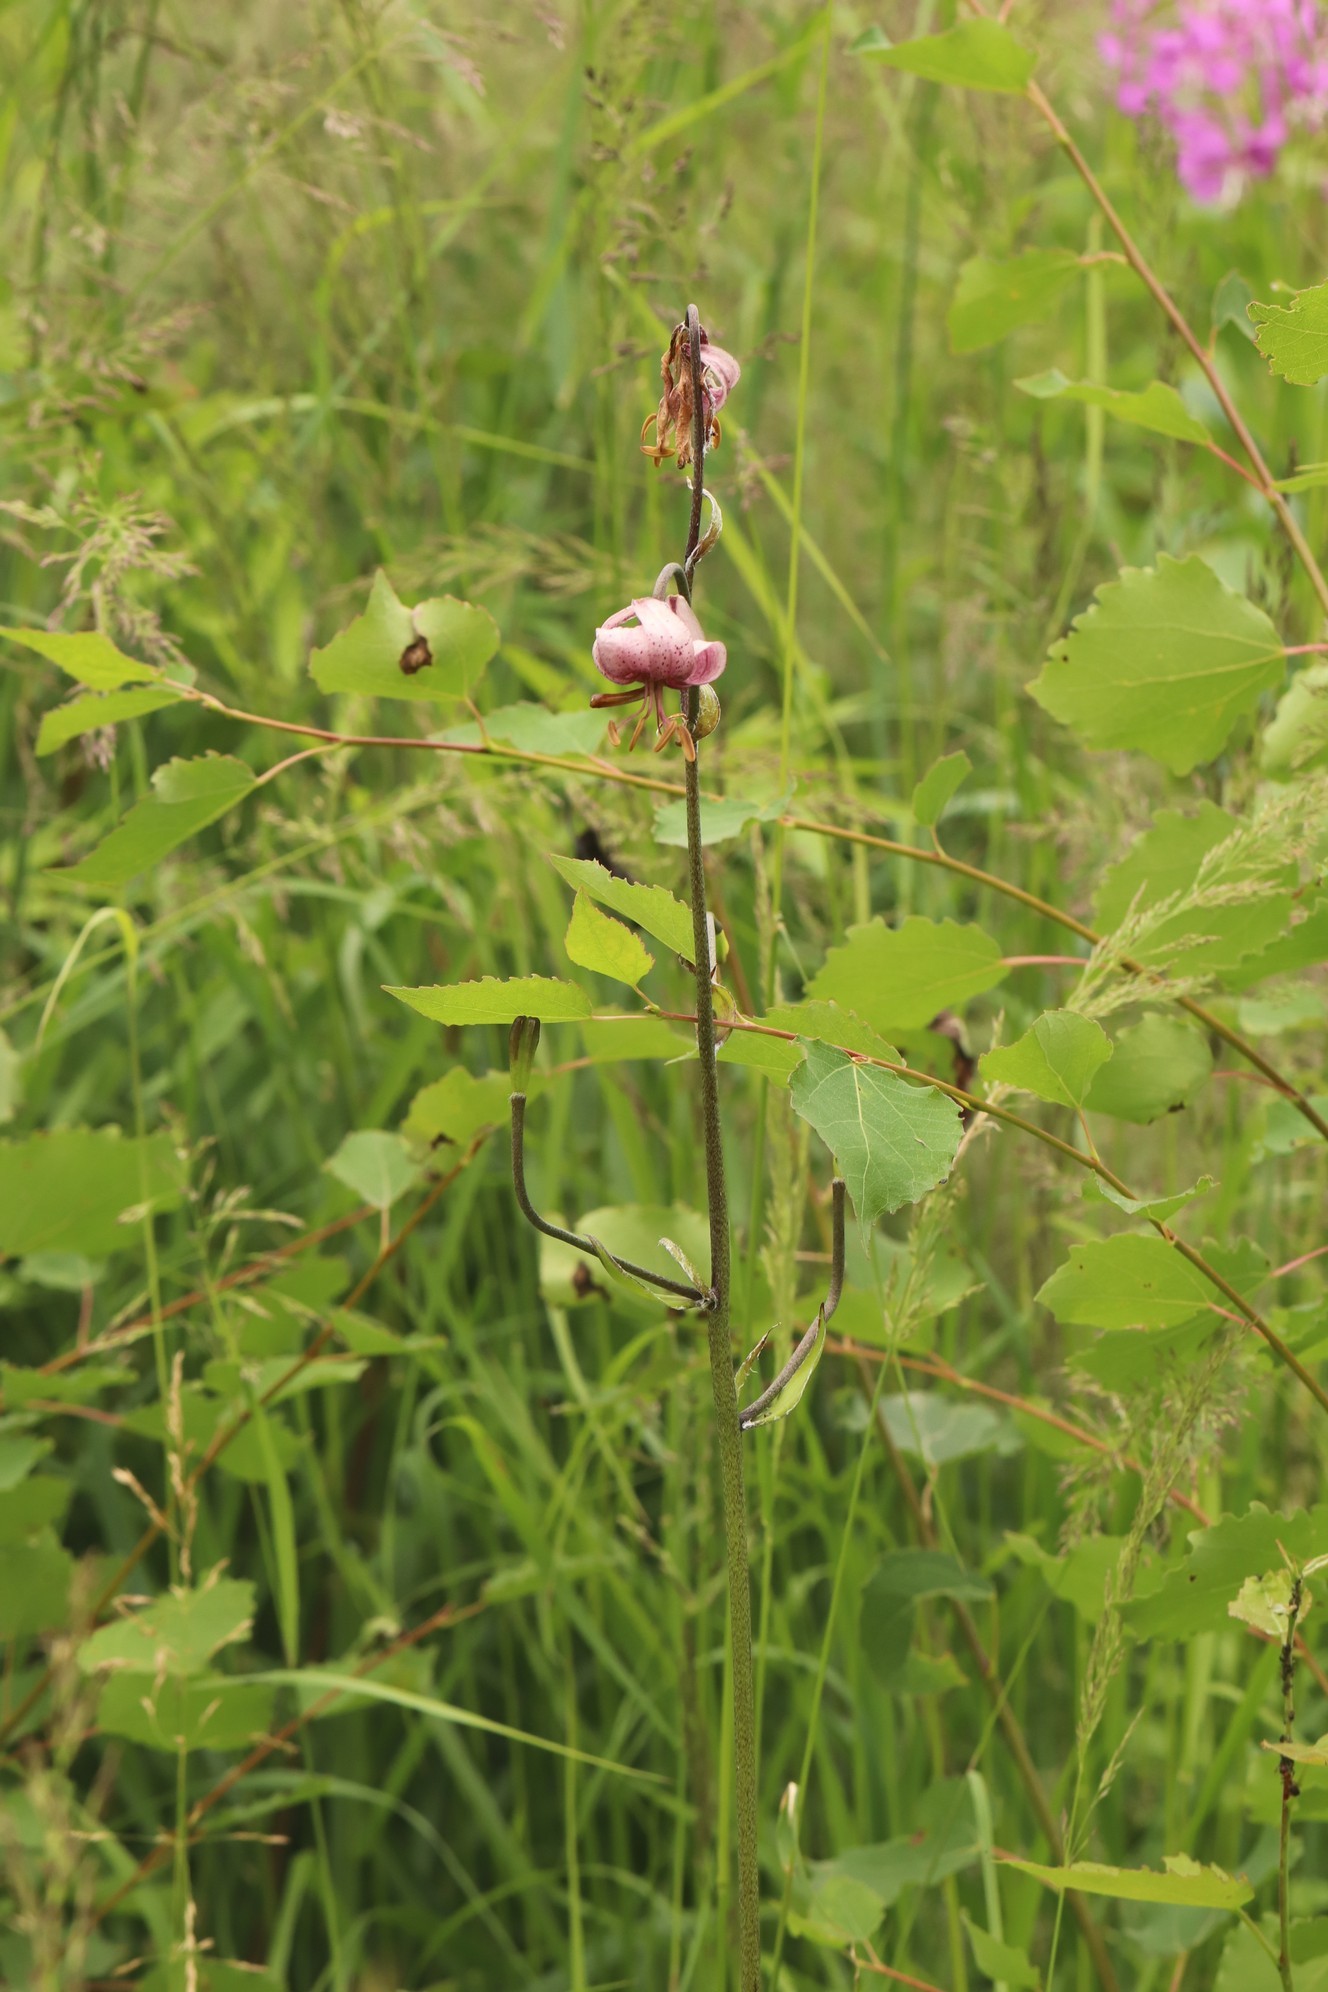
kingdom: Plantae
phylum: Tracheophyta
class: Liliopsida
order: Liliales
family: Liliaceae
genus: Lilium
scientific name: Lilium martagon
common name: Martagon lily
